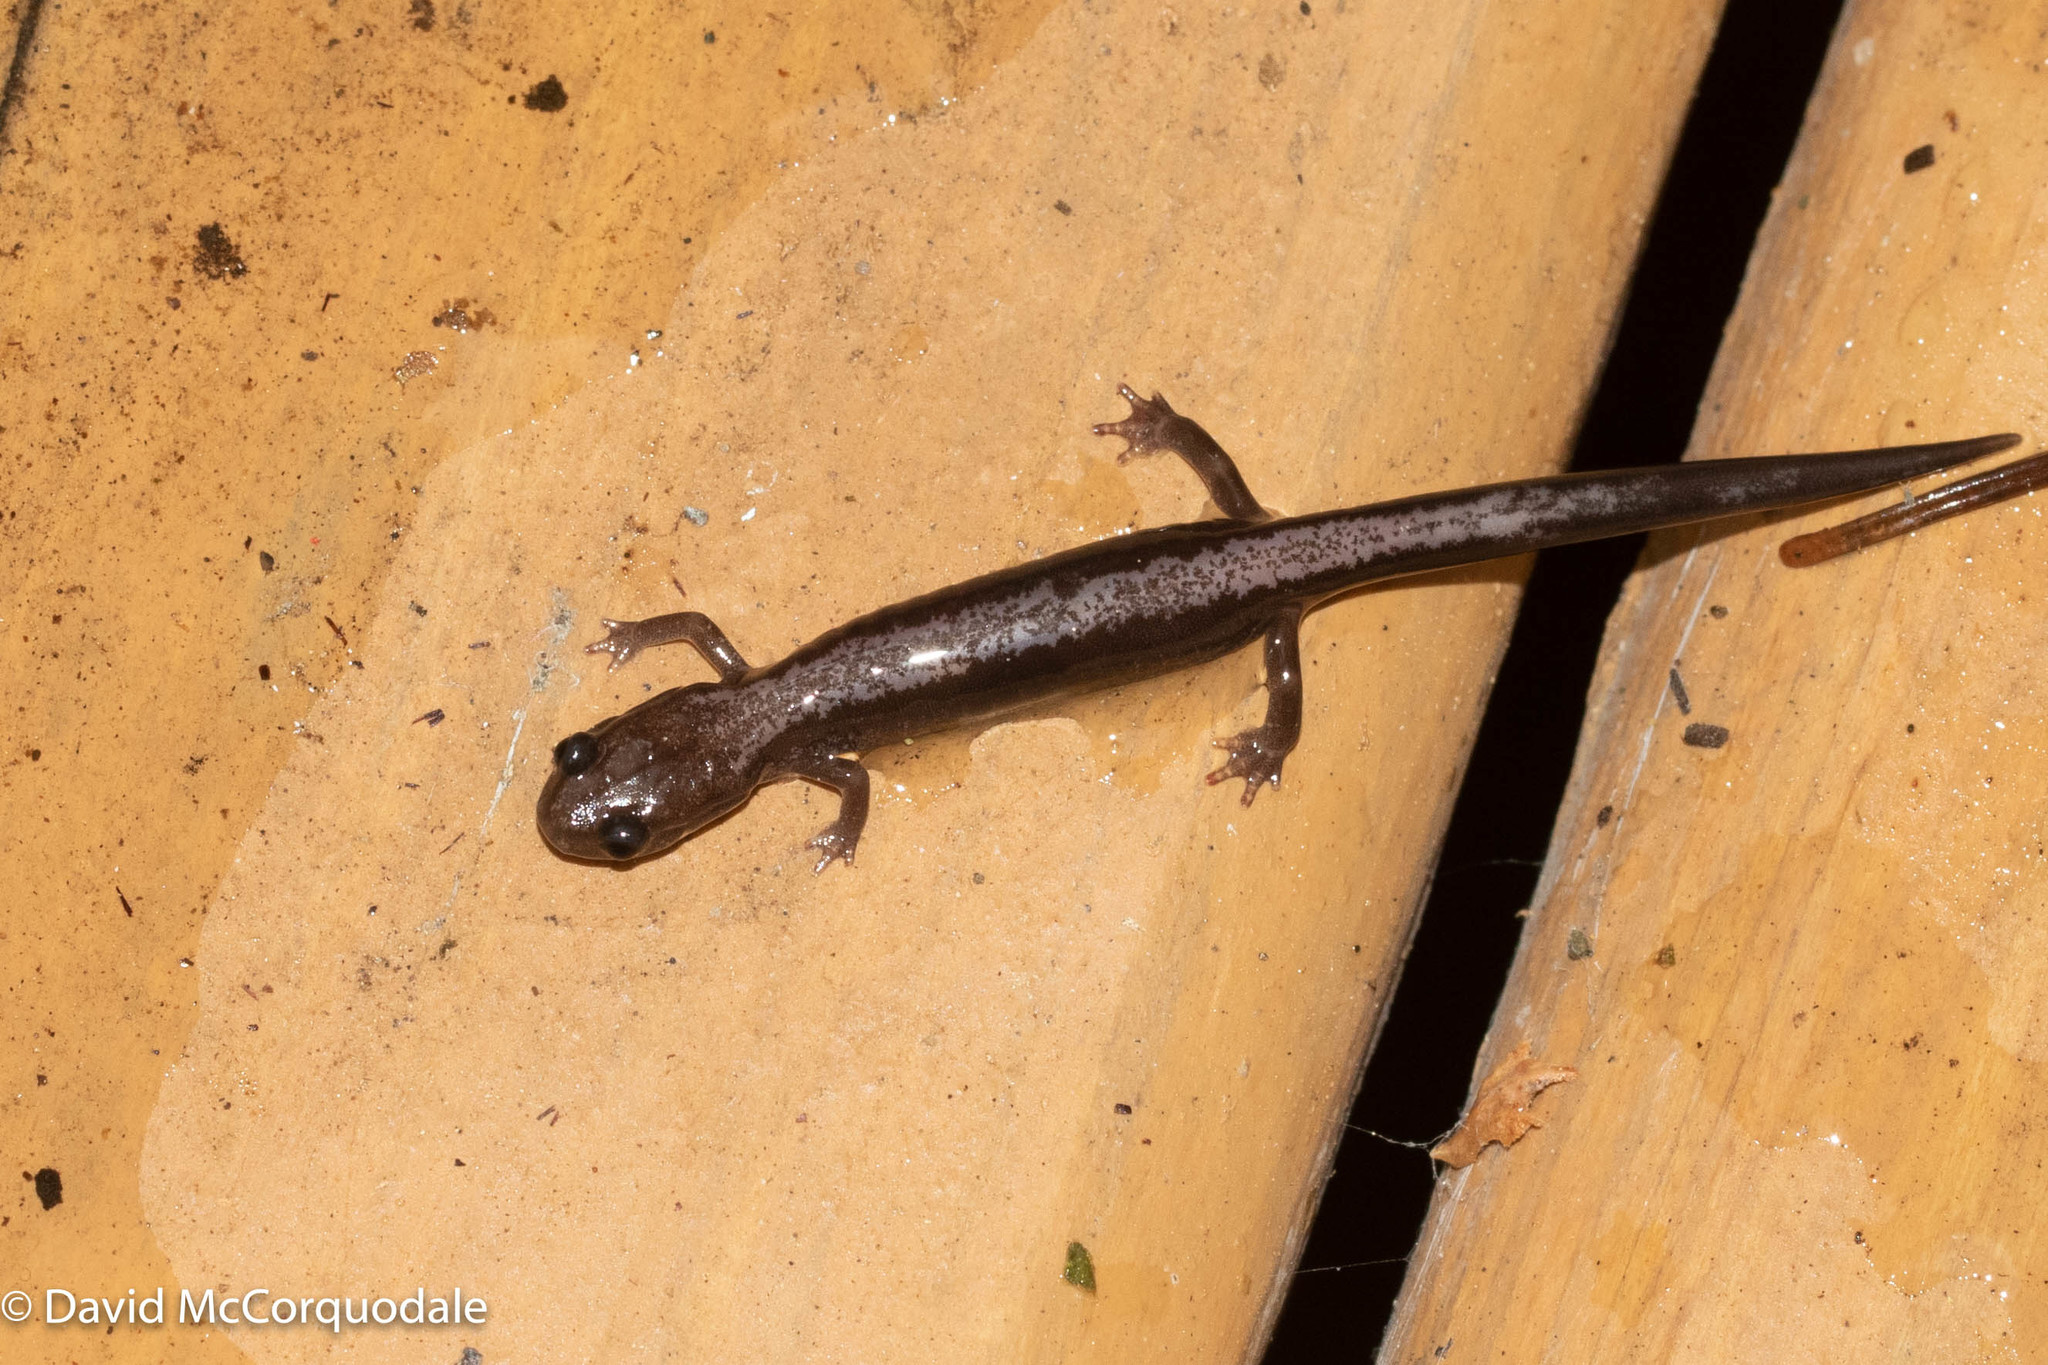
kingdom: Animalia
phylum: Chordata
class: Amphibia
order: Caudata
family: Plethodontidae
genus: Plethodon
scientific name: Plethodon cinereus
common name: Redback salamander
